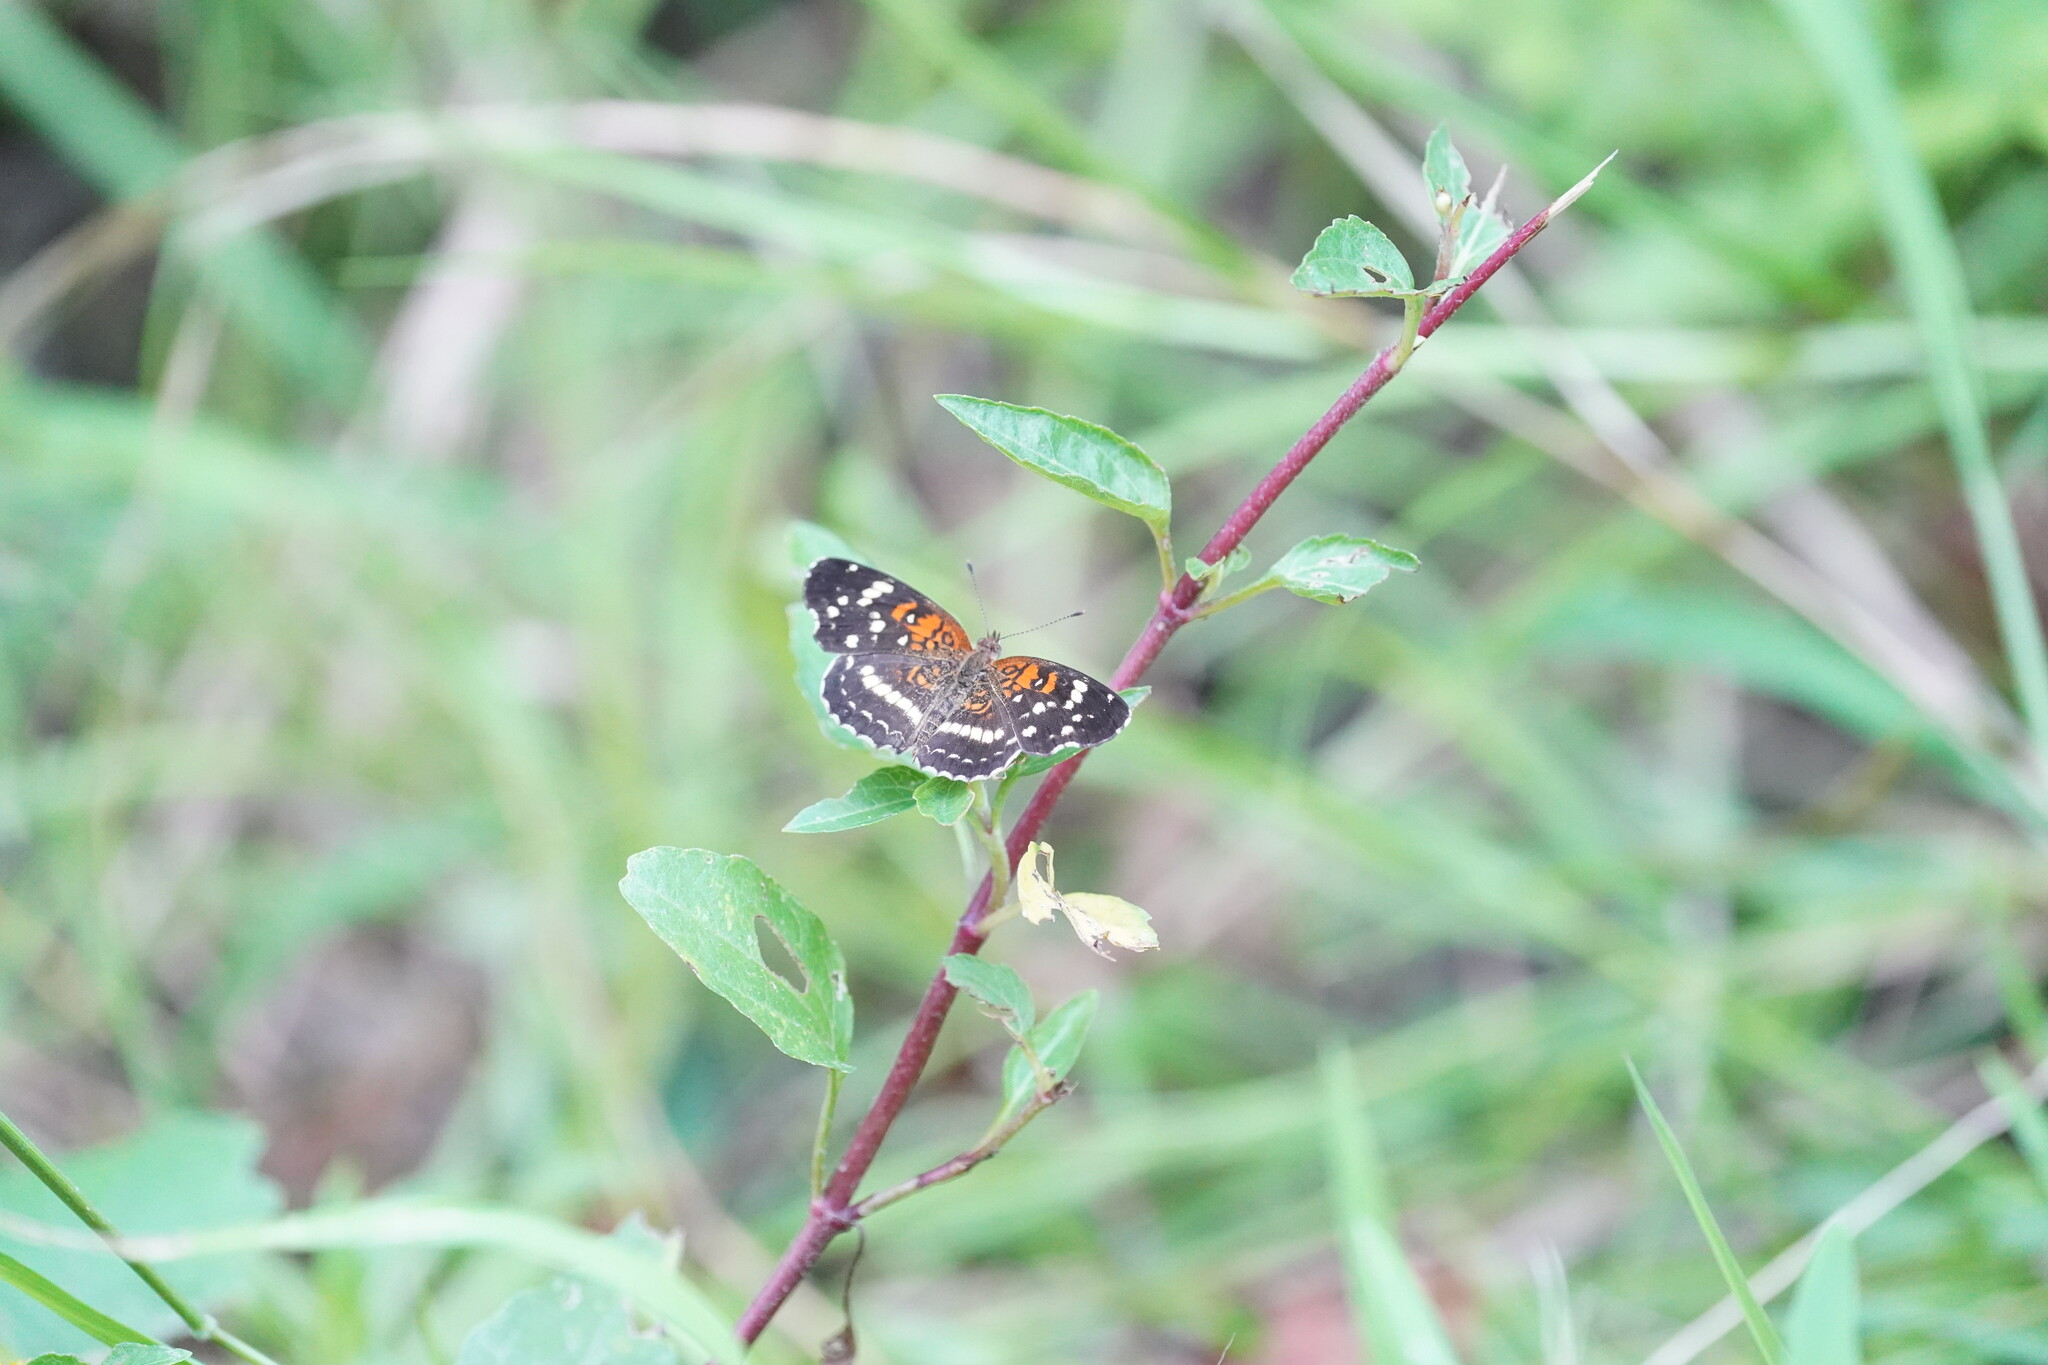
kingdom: Animalia
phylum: Arthropoda
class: Insecta
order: Lepidoptera
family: Nymphalidae
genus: Anthanassa
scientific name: Anthanassa taxana
